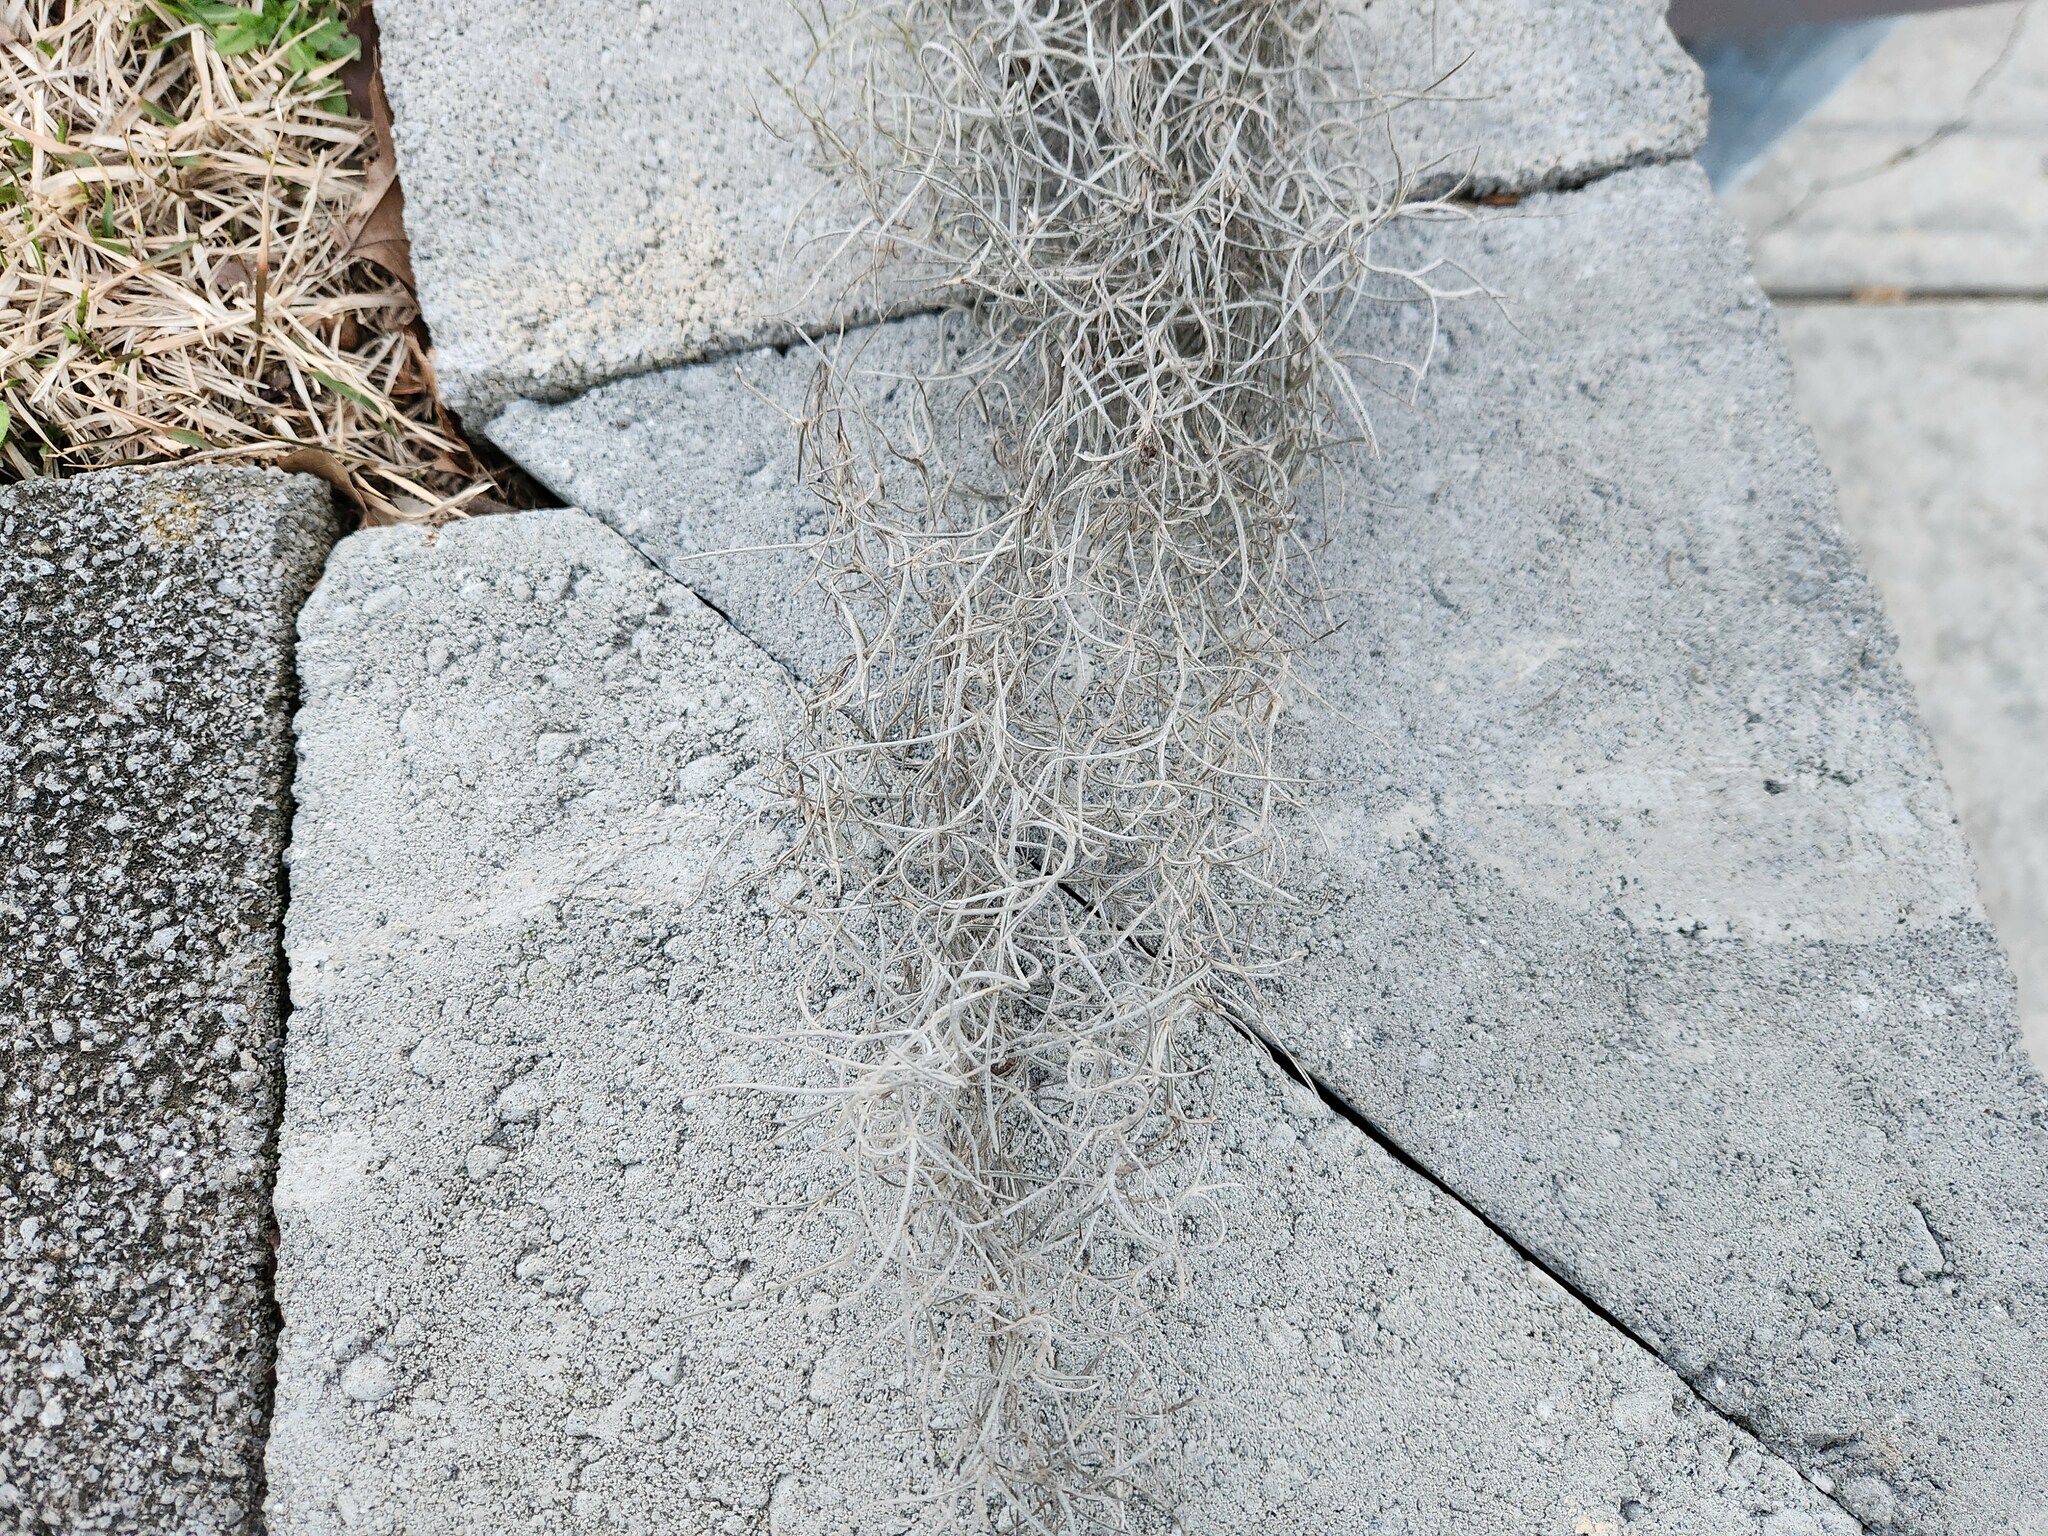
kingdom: Plantae
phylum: Tracheophyta
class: Liliopsida
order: Poales
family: Bromeliaceae
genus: Tillandsia
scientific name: Tillandsia usneoides
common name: Spanish moss
